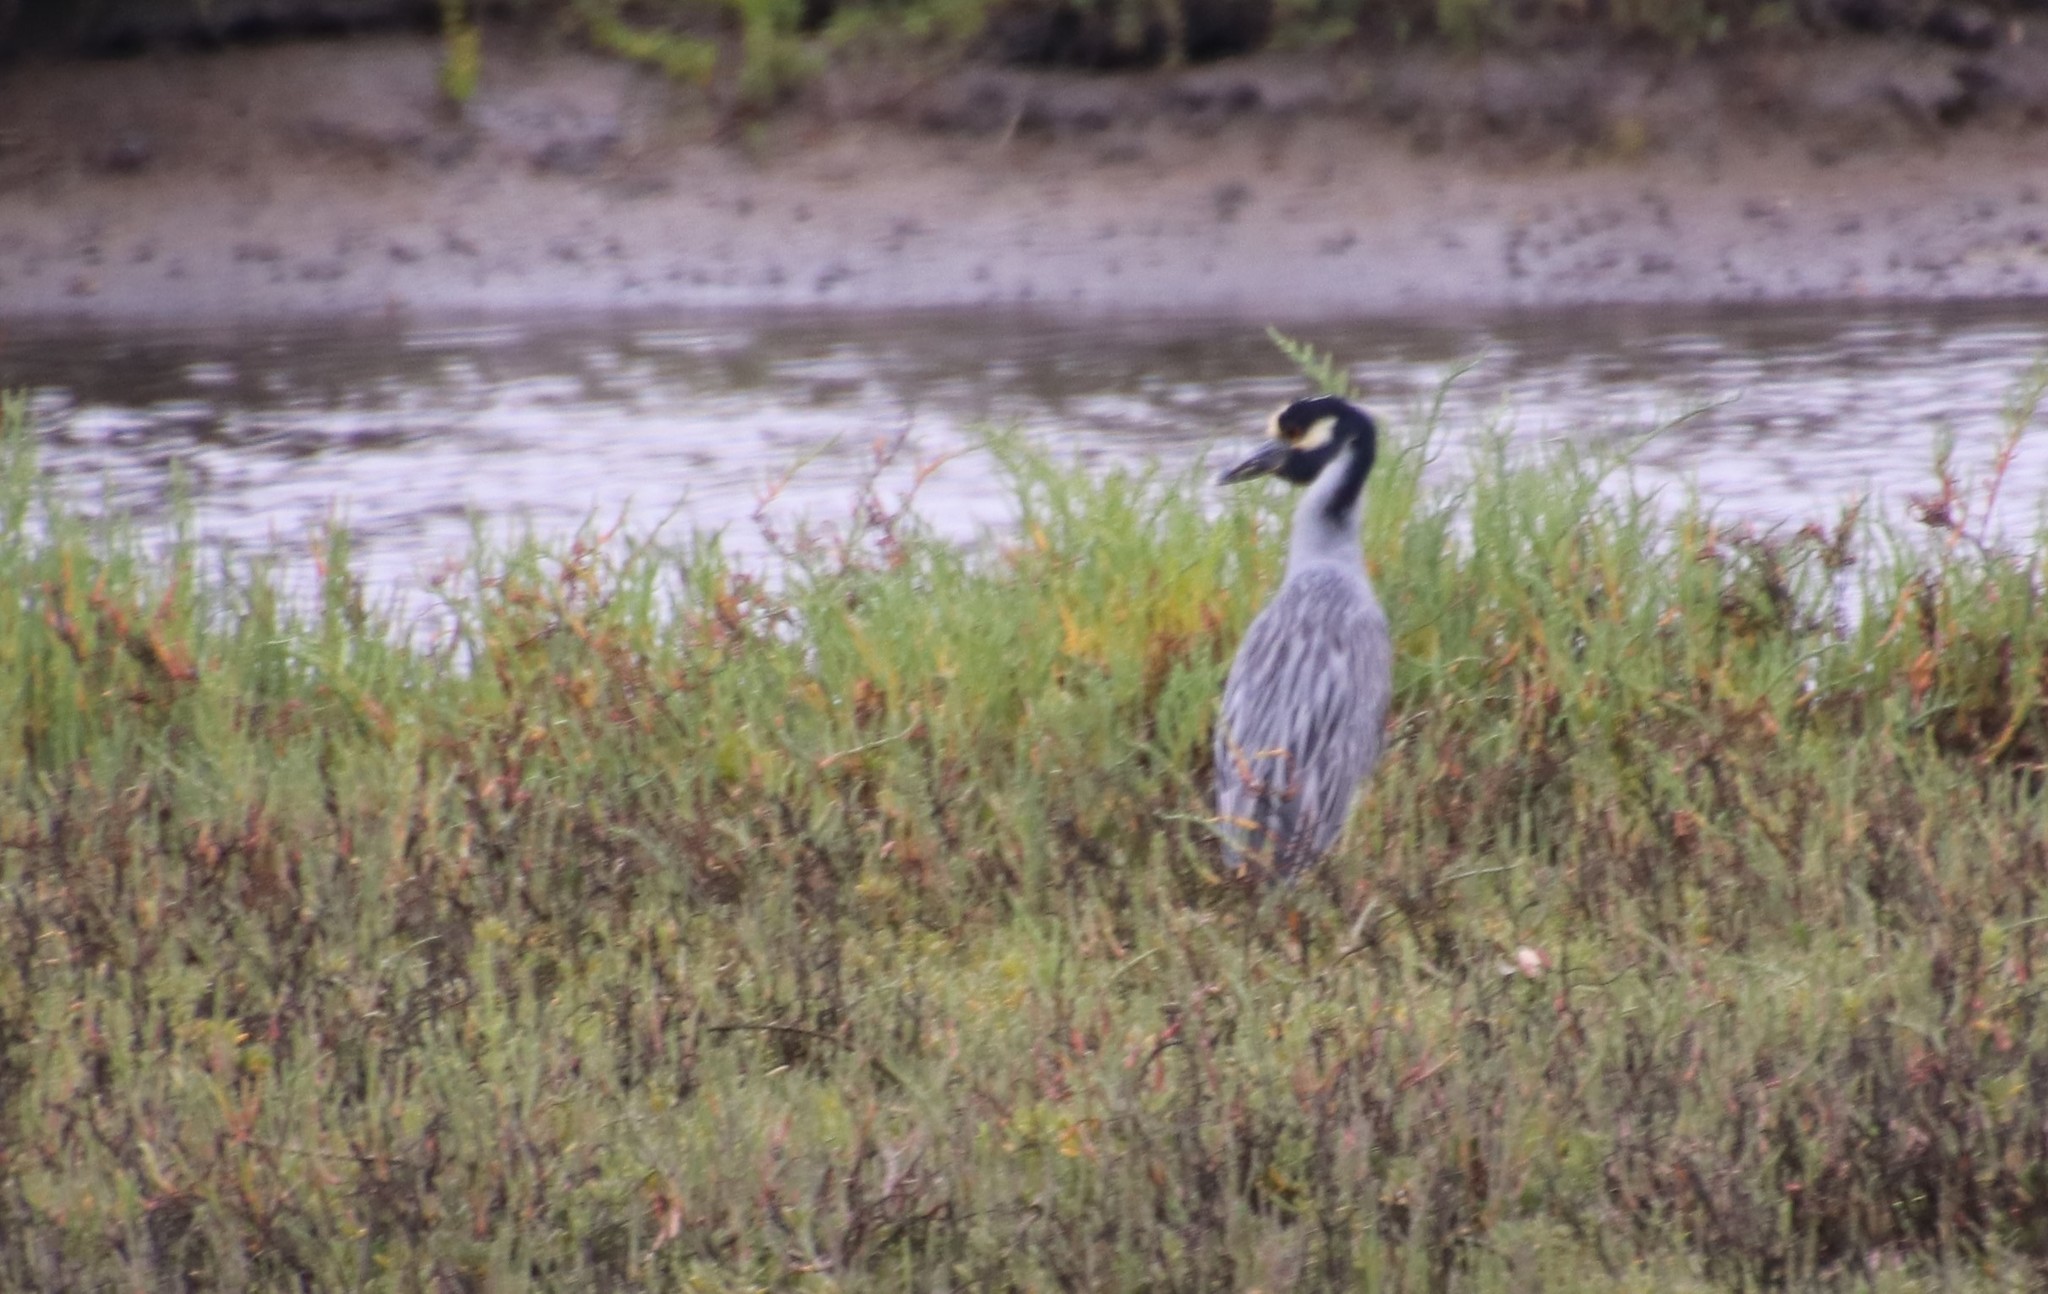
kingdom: Animalia
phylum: Chordata
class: Aves
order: Pelecaniformes
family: Ardeidae
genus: Nyctanassa
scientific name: Nyctanassa violacea
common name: Yellow-crowned night heron
